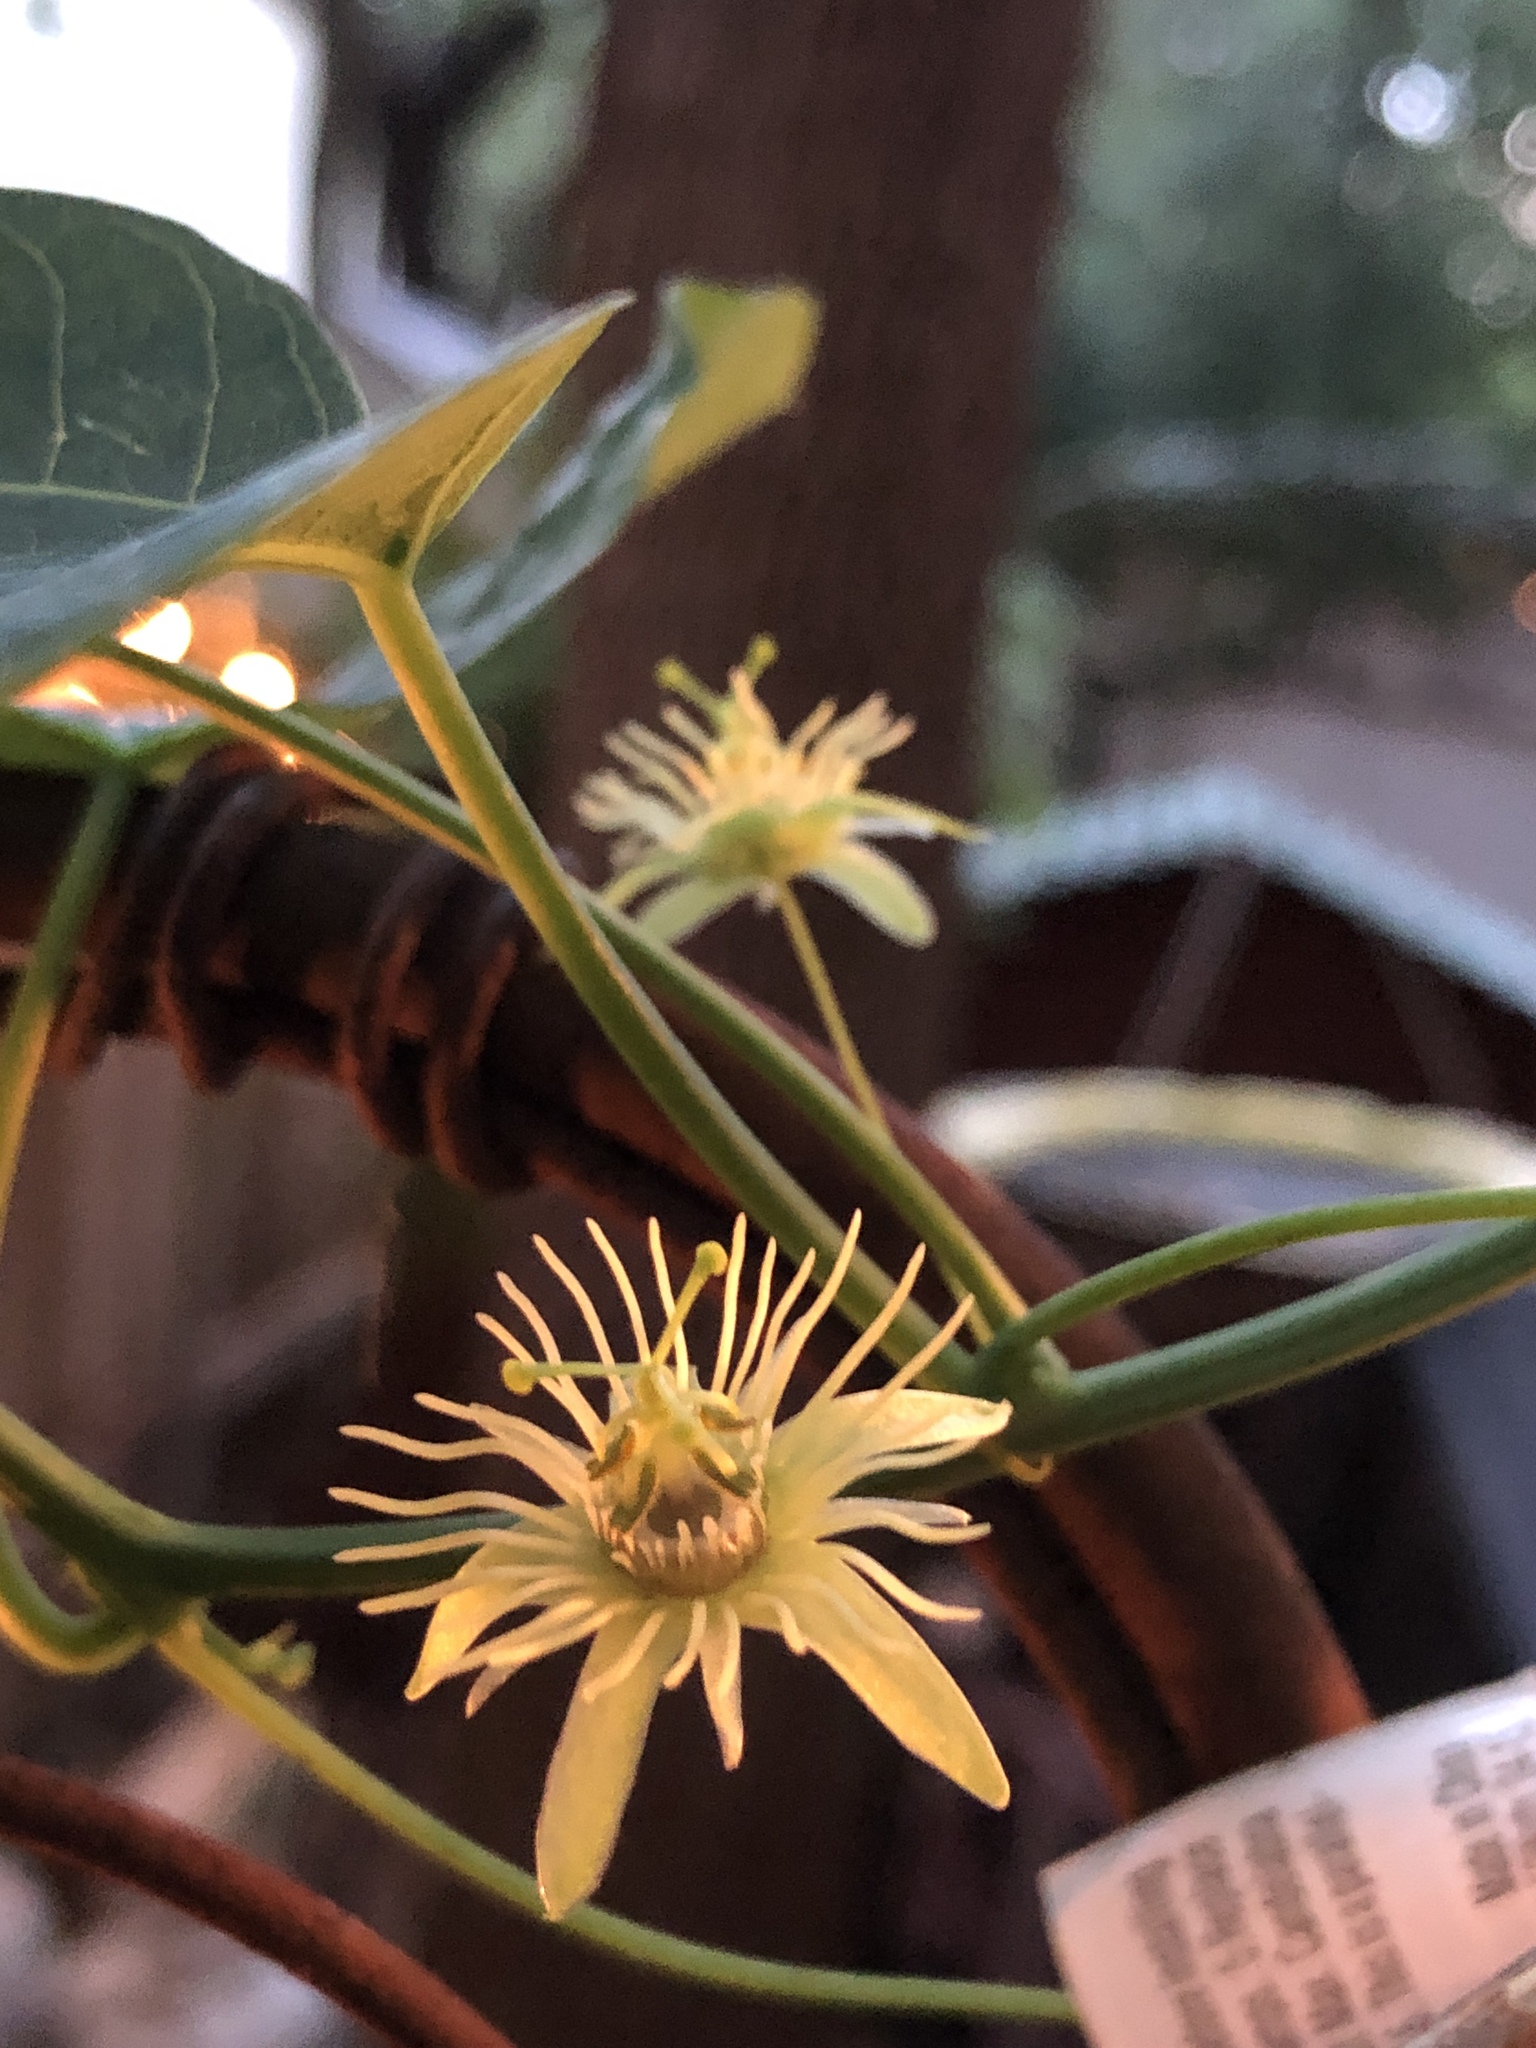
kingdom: Plantae
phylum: Tracheophyta
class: Magnoliopsida
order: Malpighiales
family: Passifloraceae
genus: Passiflora
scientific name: Passiflora lutea
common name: Yellow passionflower
